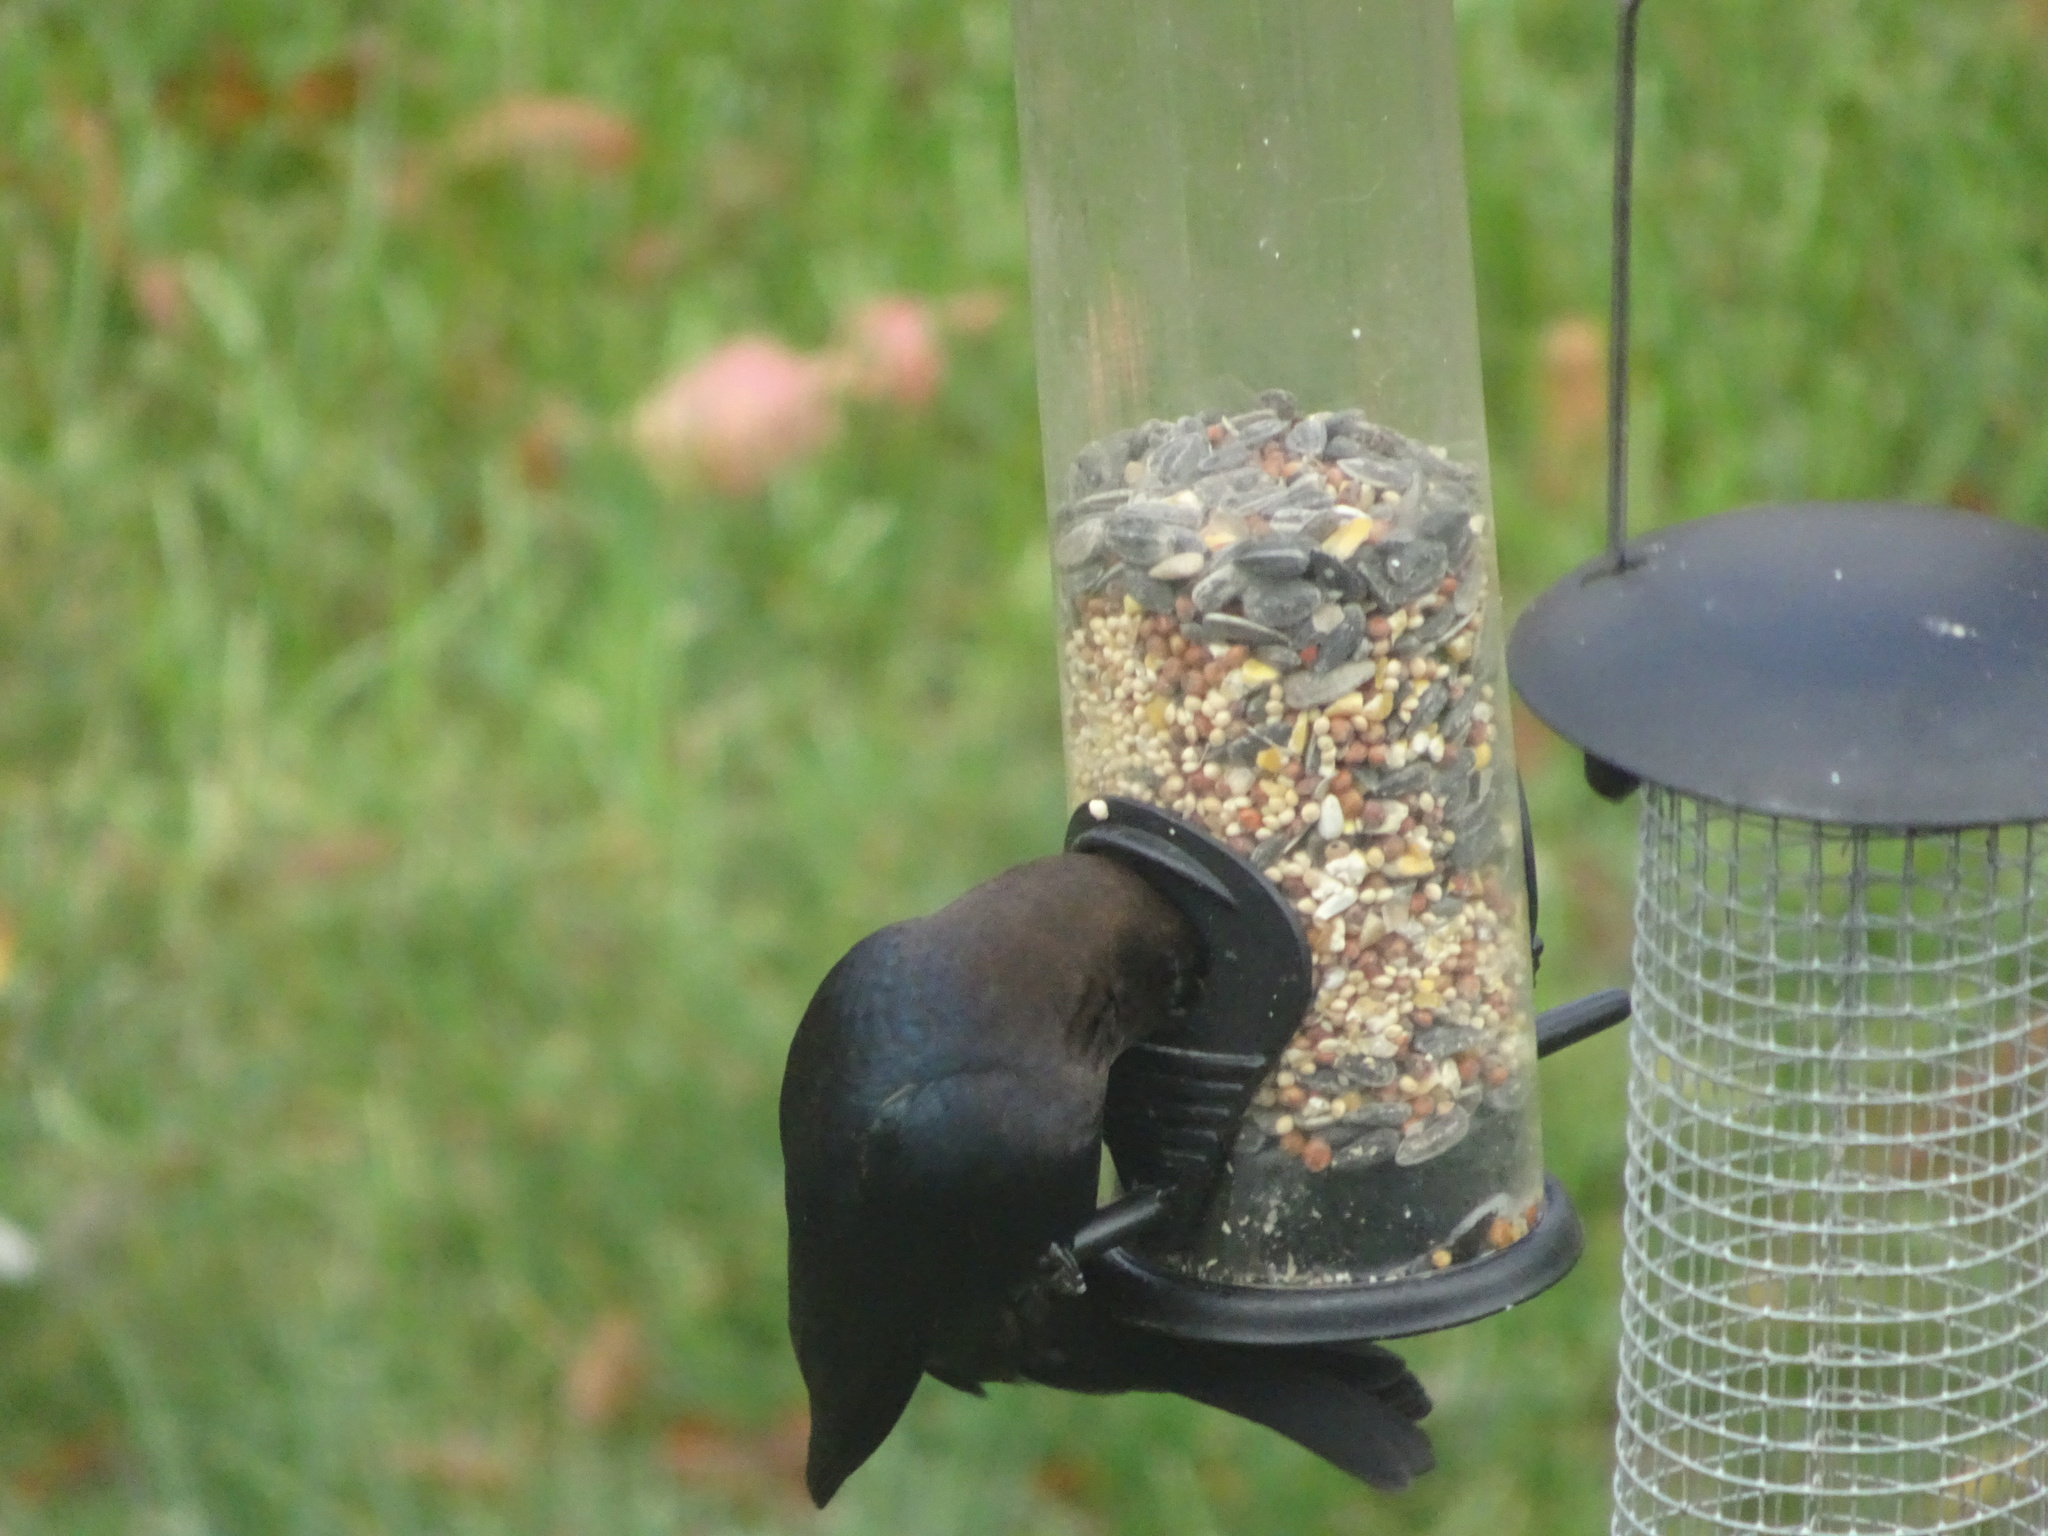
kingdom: Animalia
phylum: Chordata
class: Aves
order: Passeriformes
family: Icteridae
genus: Molothrus
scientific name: Molothrus ater
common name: Brown-headed cowbird
